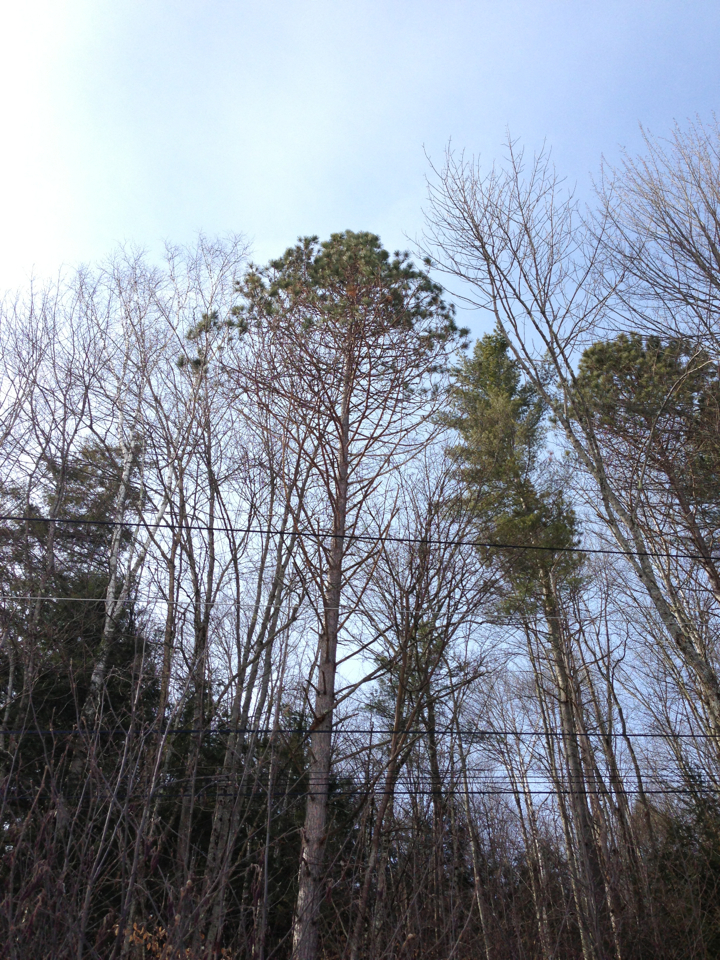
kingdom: Plantae
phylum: Tracheophyta
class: Pinopsida
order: Pinales
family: Pinaceae
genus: Pinus
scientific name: Pinus resinosa
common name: Norway pine
